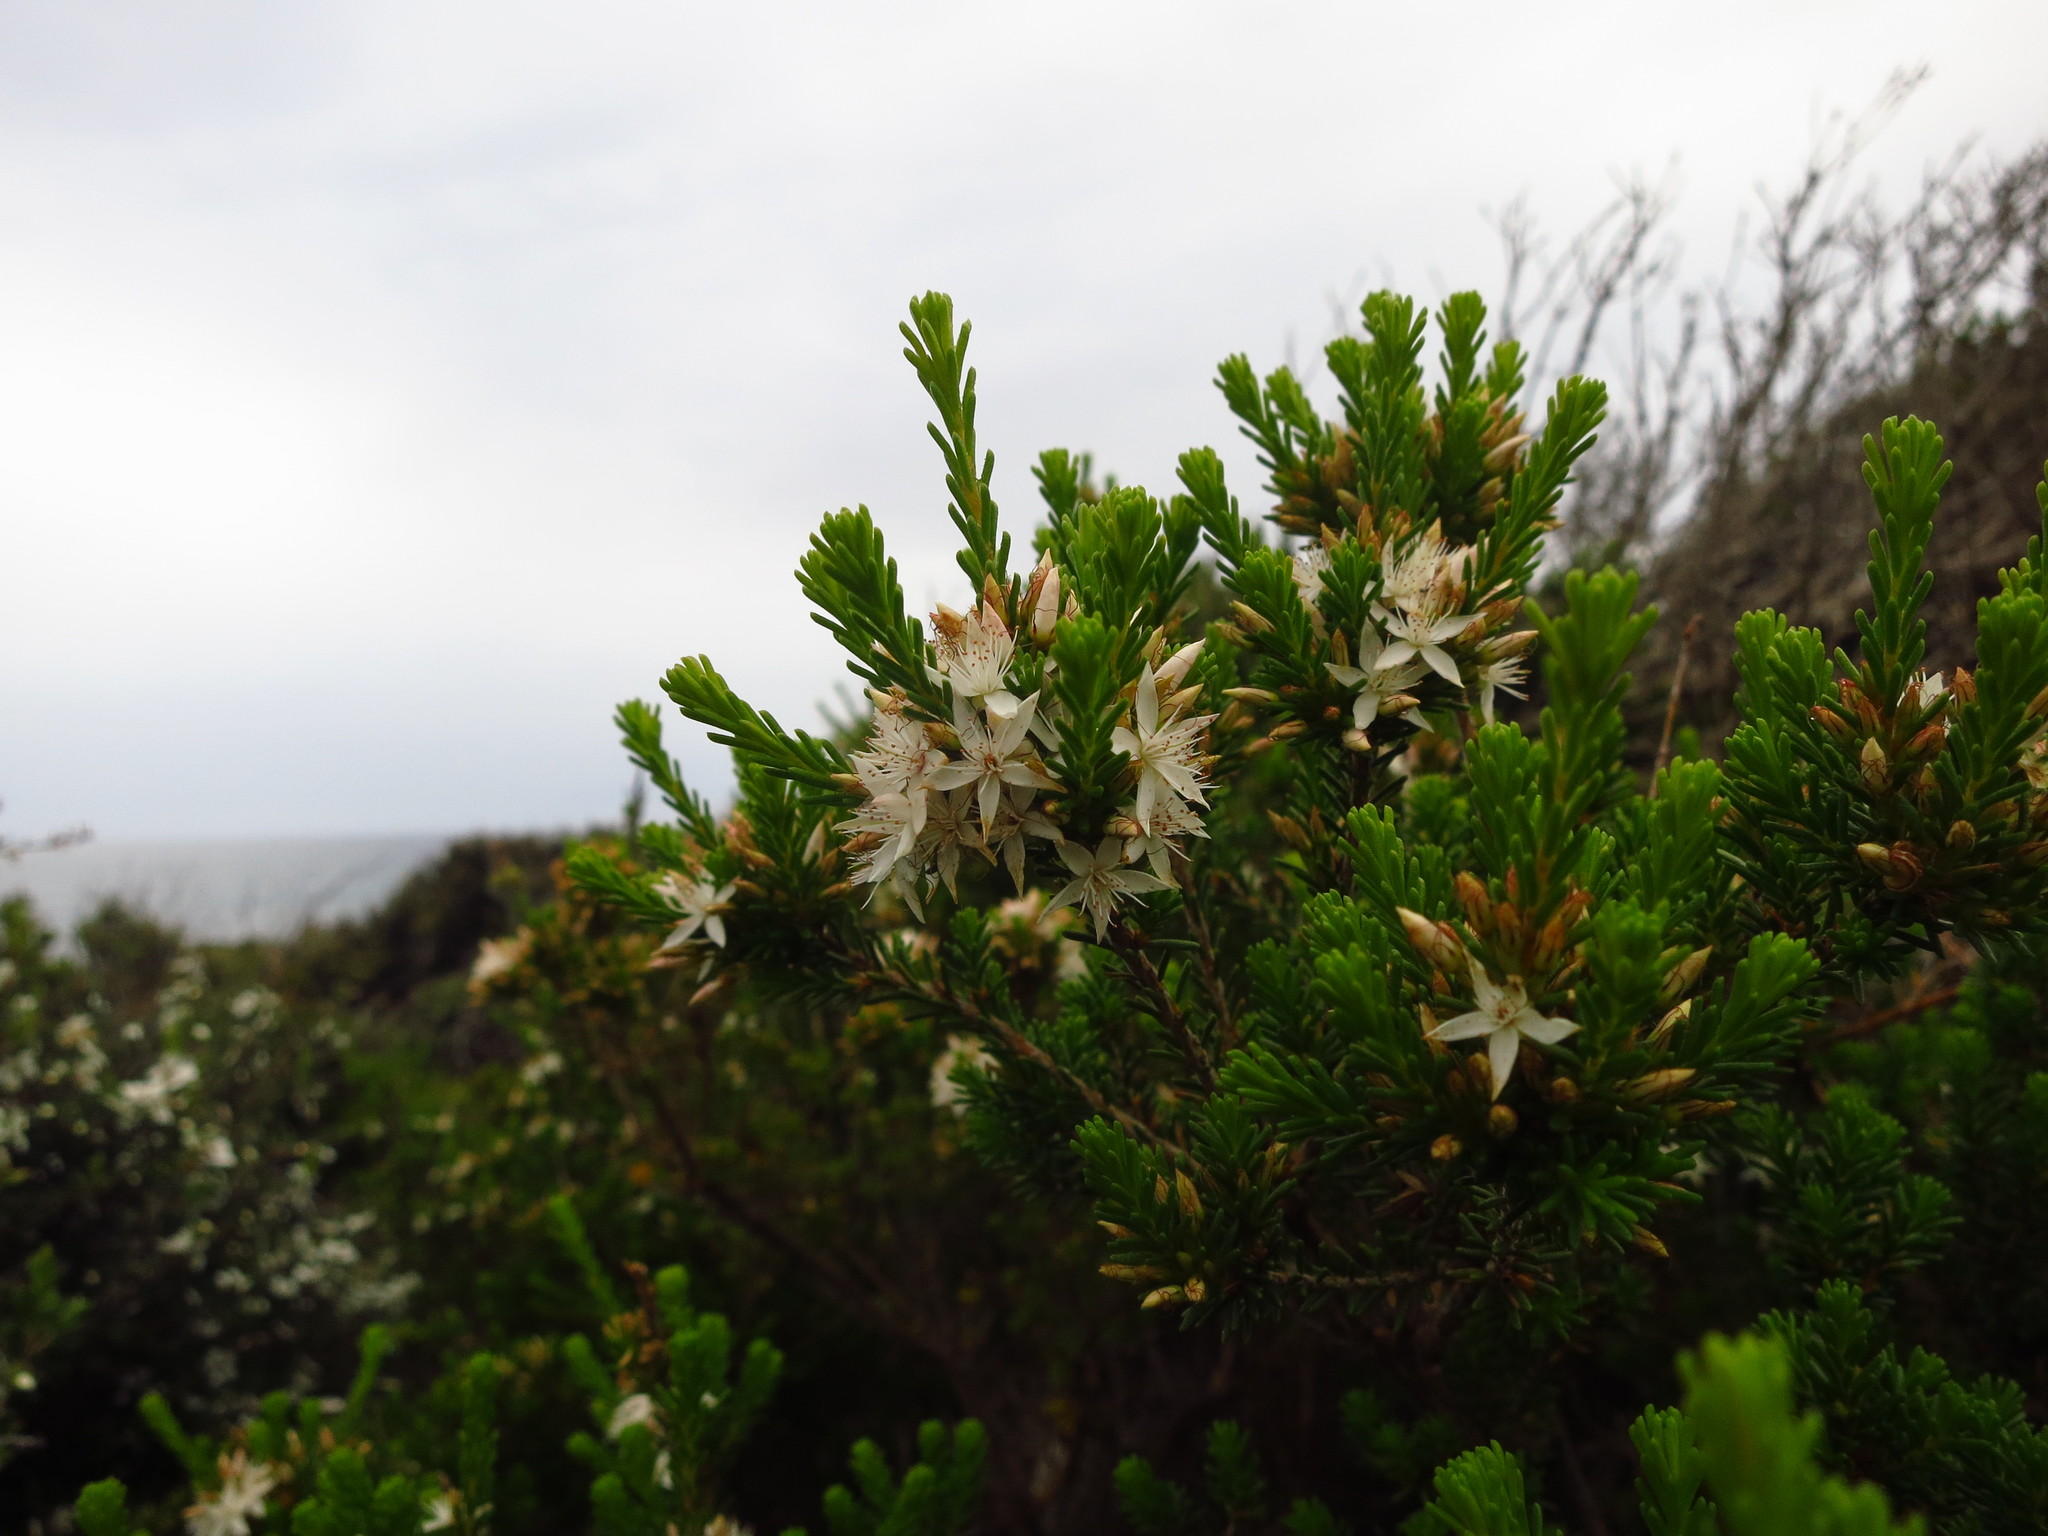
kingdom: Plantae
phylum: Tracheophyta
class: Magnoliopsida
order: Myrtales
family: Myrtaceae
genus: Calytrix
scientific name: Calytrix tetragona
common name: Common fringe myrtle
